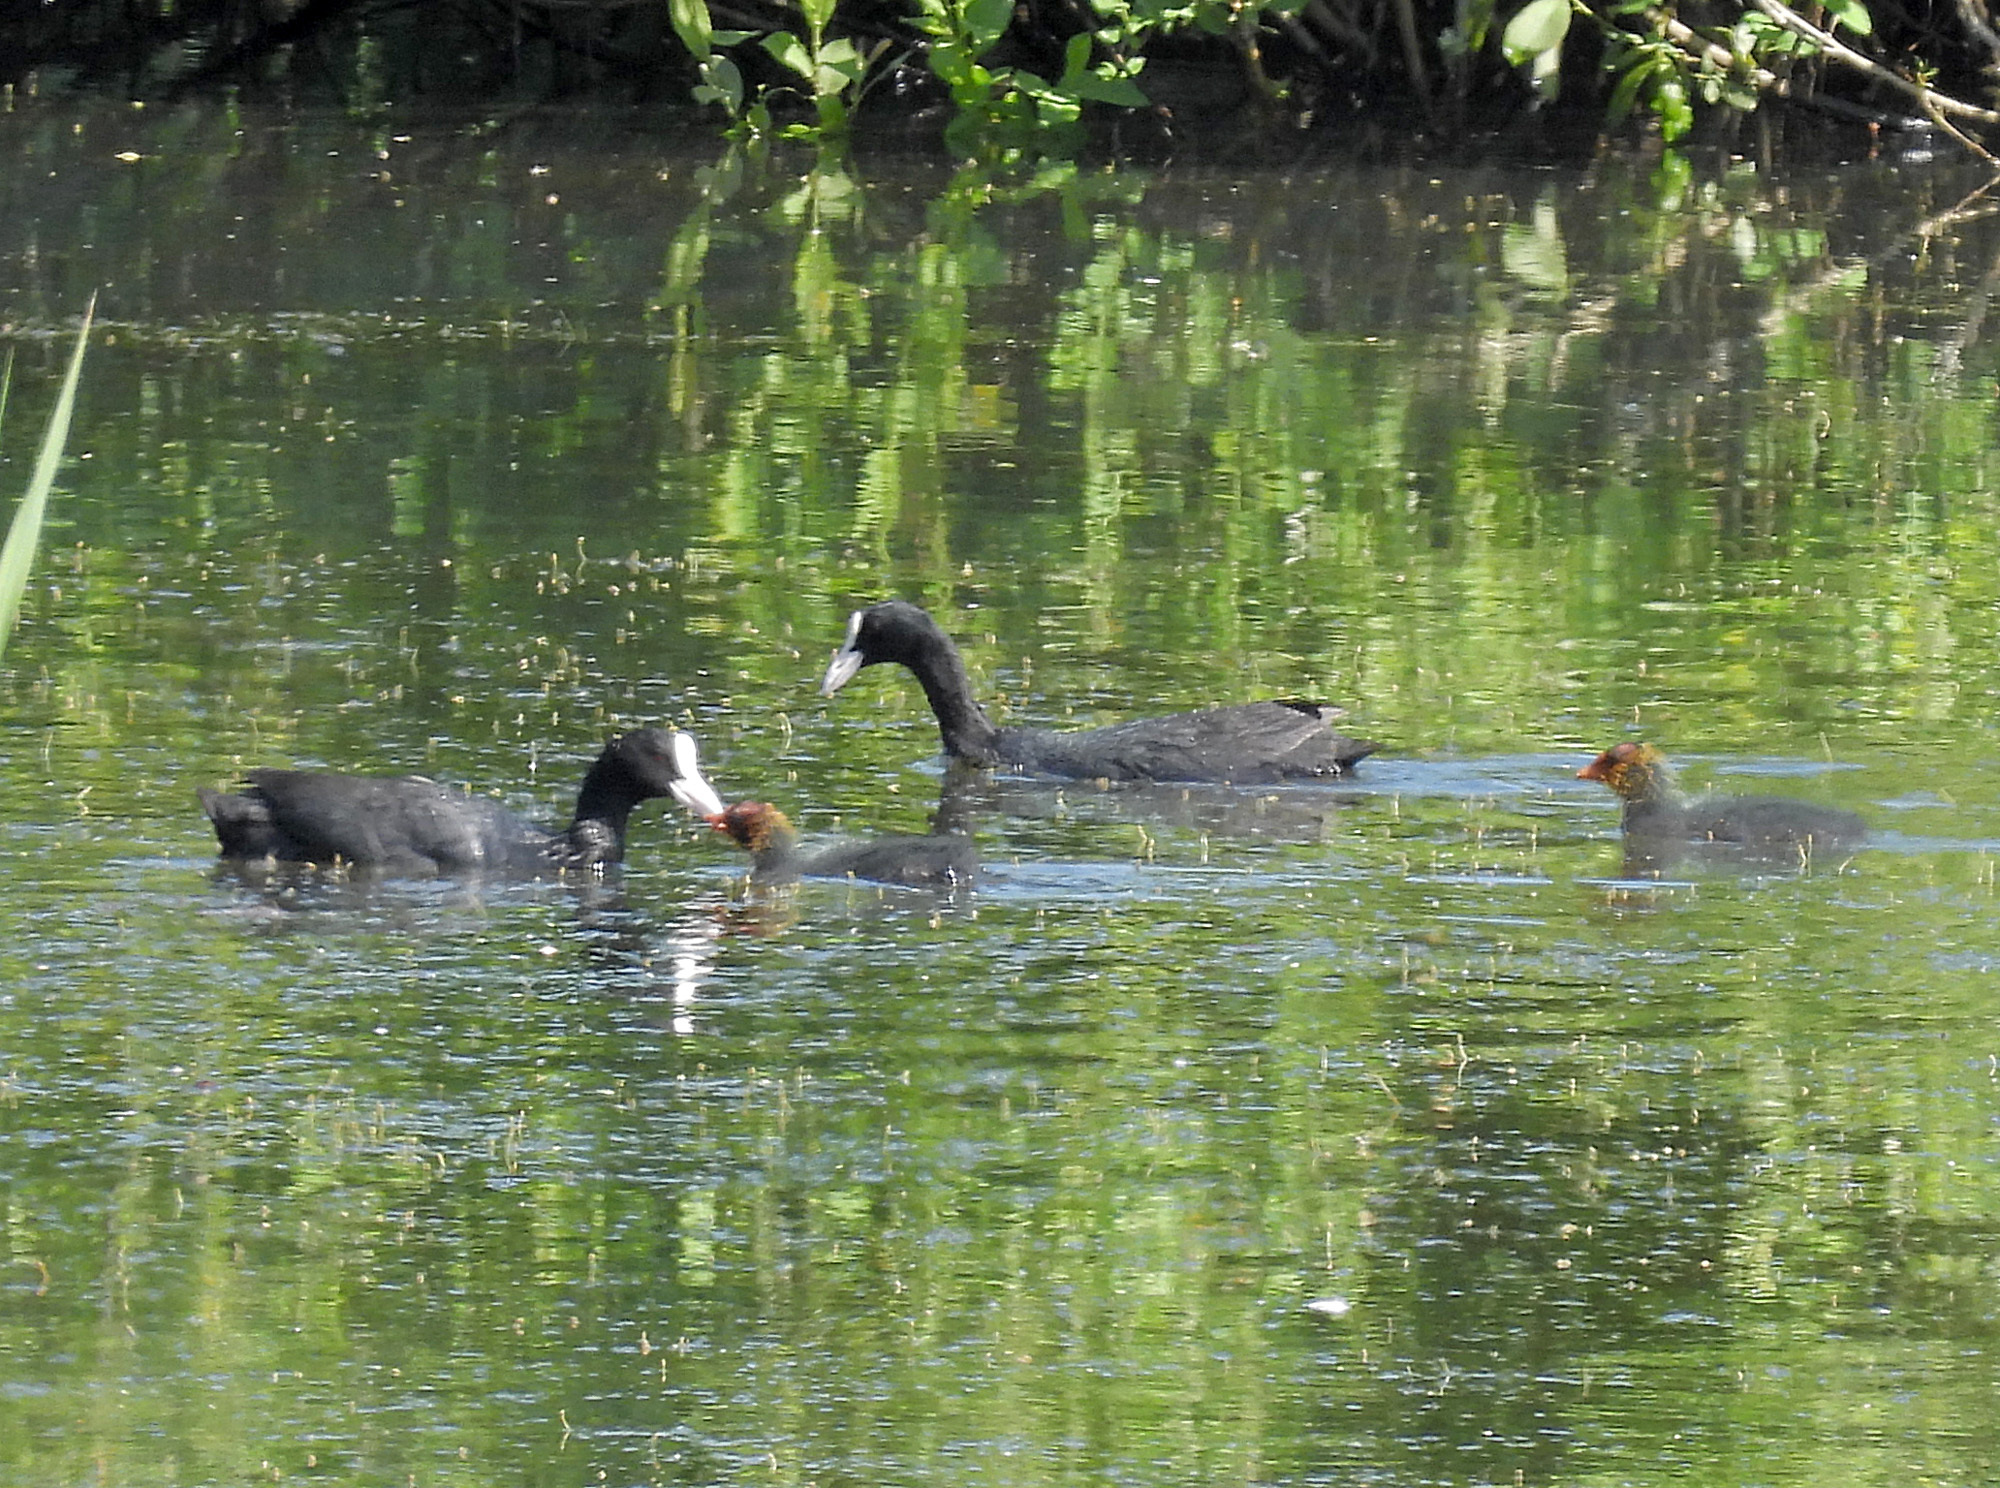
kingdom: Animalia
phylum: Chordata
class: Aves
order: Gruiformes
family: Rallidae
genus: Fulica
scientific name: Fulica atra
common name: Eurasian coot
